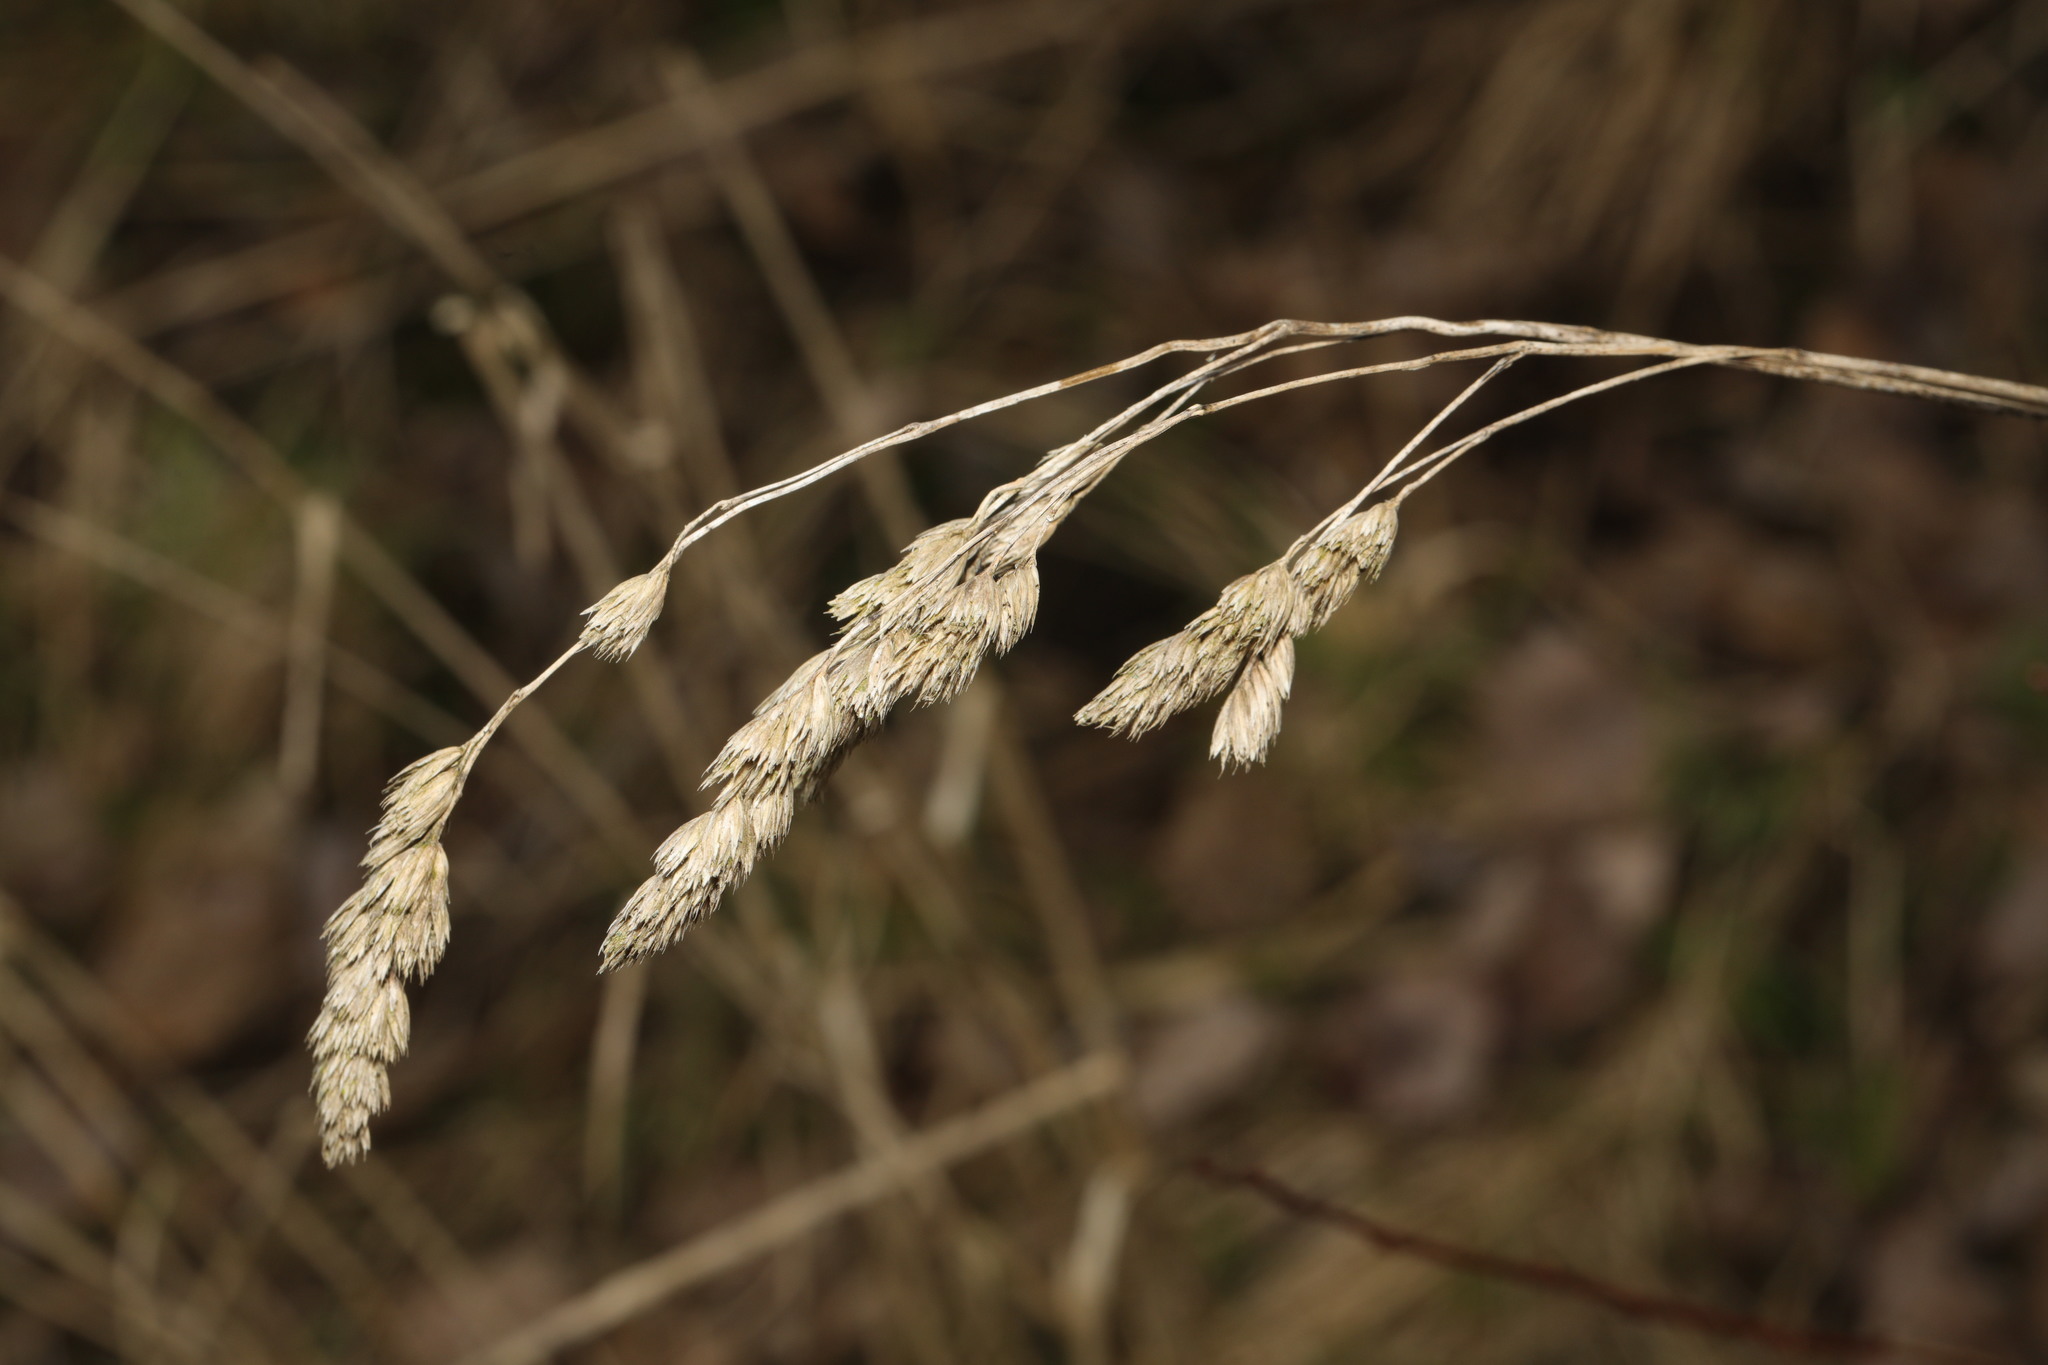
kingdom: Plantae
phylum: Tracheophyta
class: Liliopsida
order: Poales
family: Poaceae
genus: Dactylis
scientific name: Dactylis glomerata
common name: Orchardgrass
